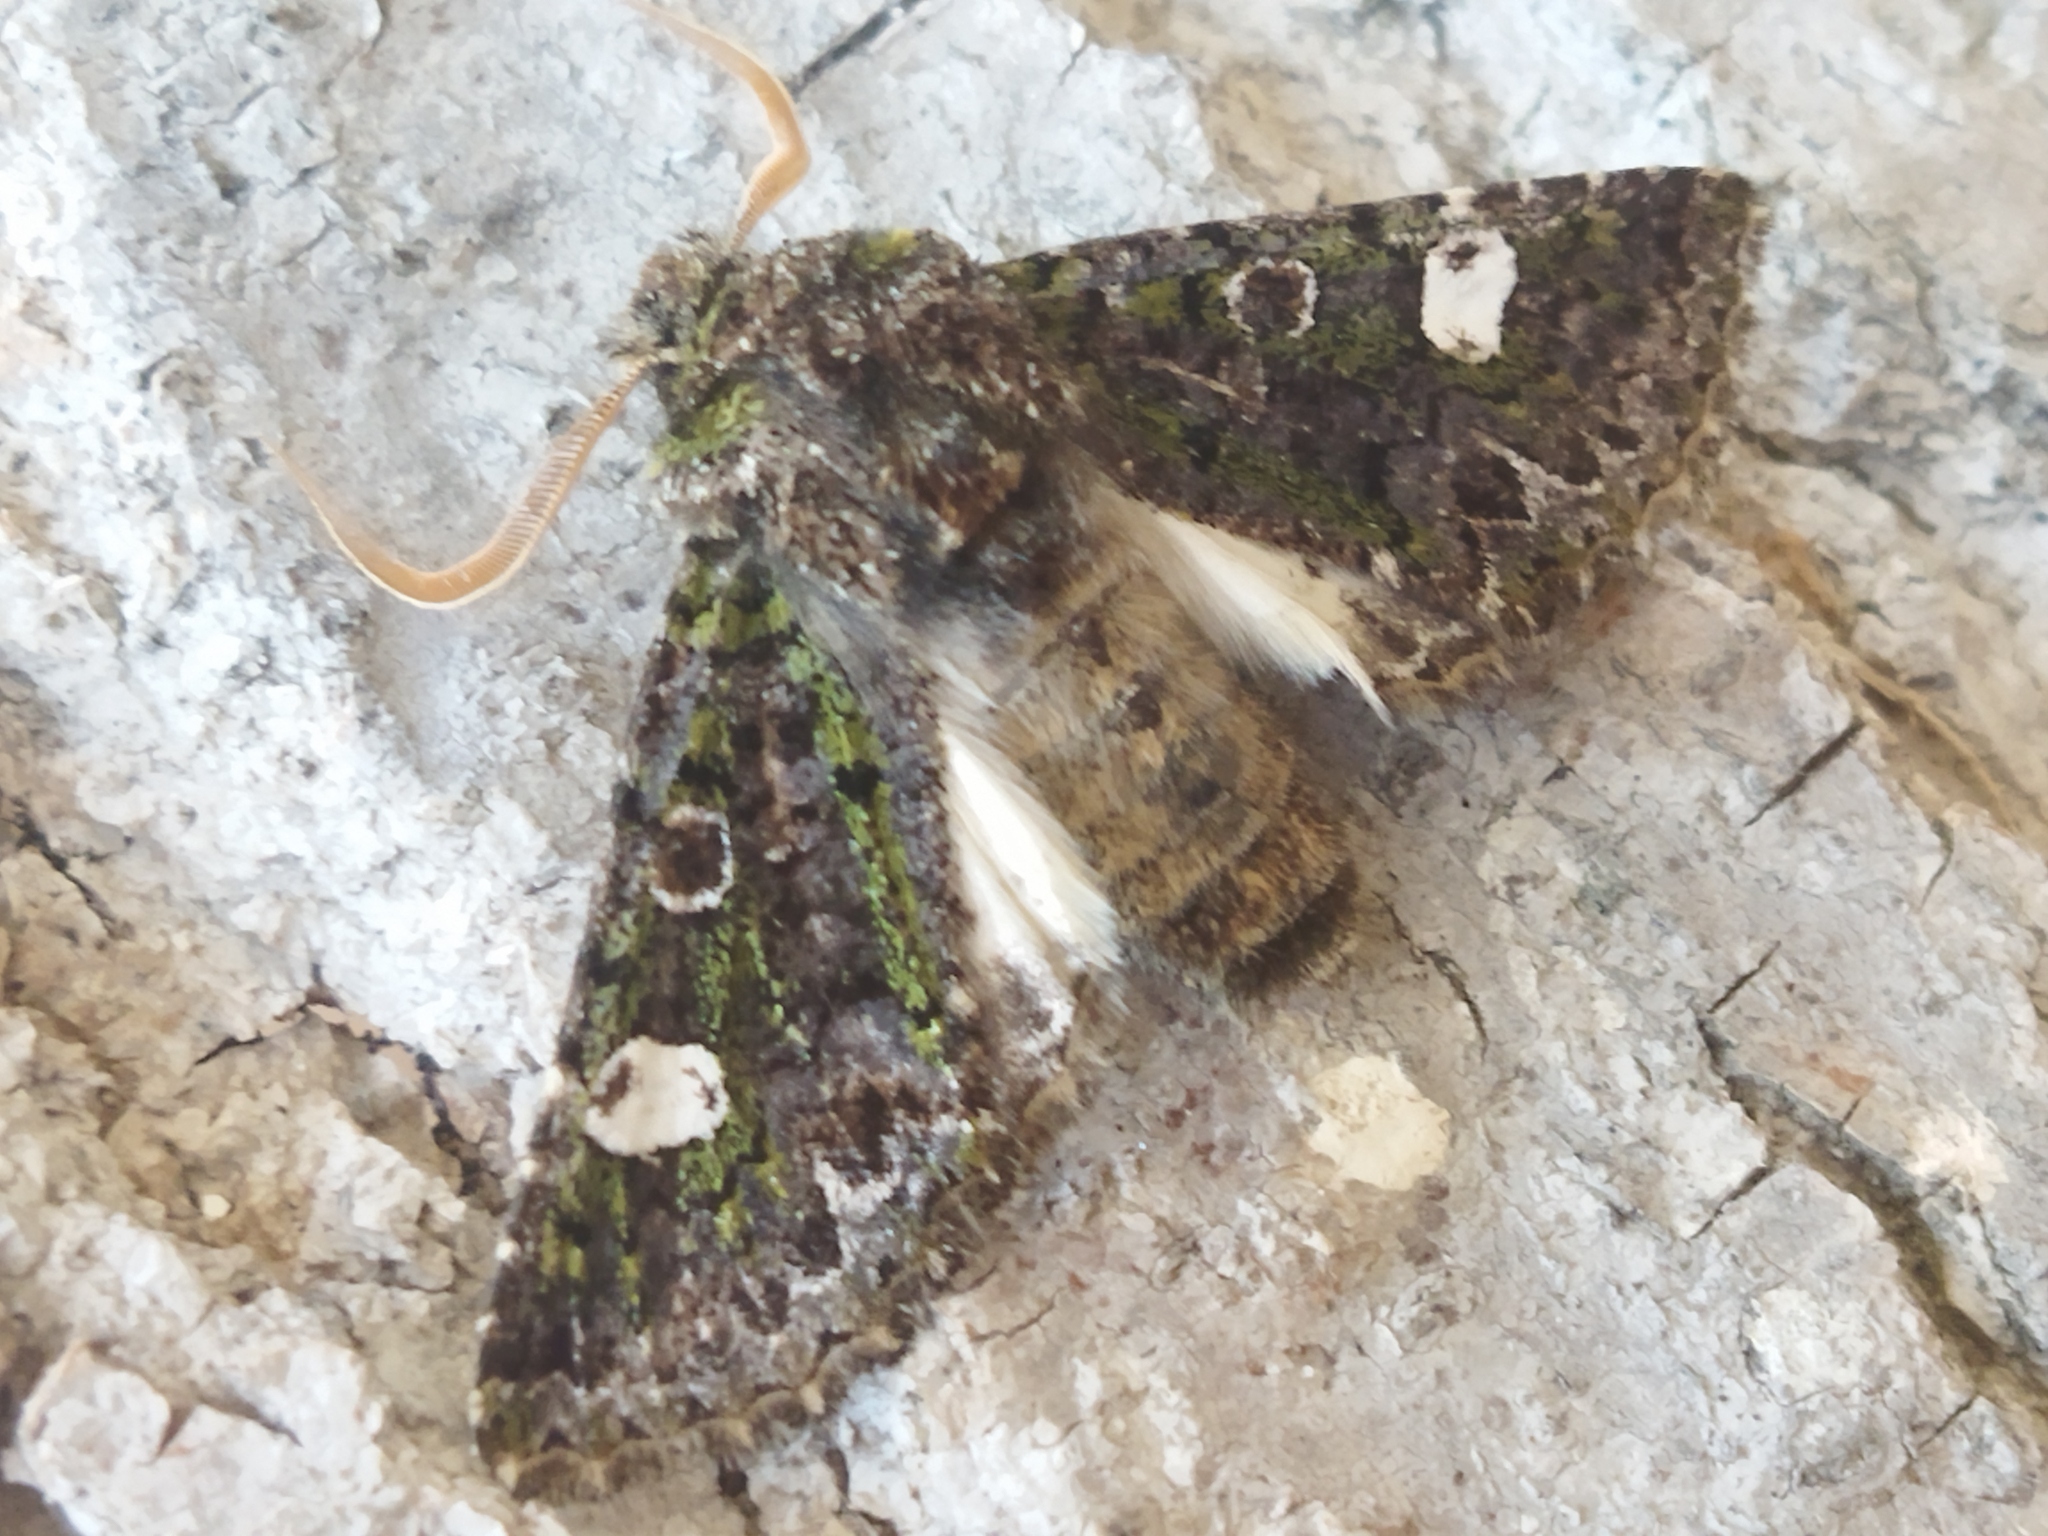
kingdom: Animalia
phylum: Arthropoda
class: Insecta
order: Lepidoptera
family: Noctuidae
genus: Valeria
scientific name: Valeria oleagina
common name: Green-brindled dot
